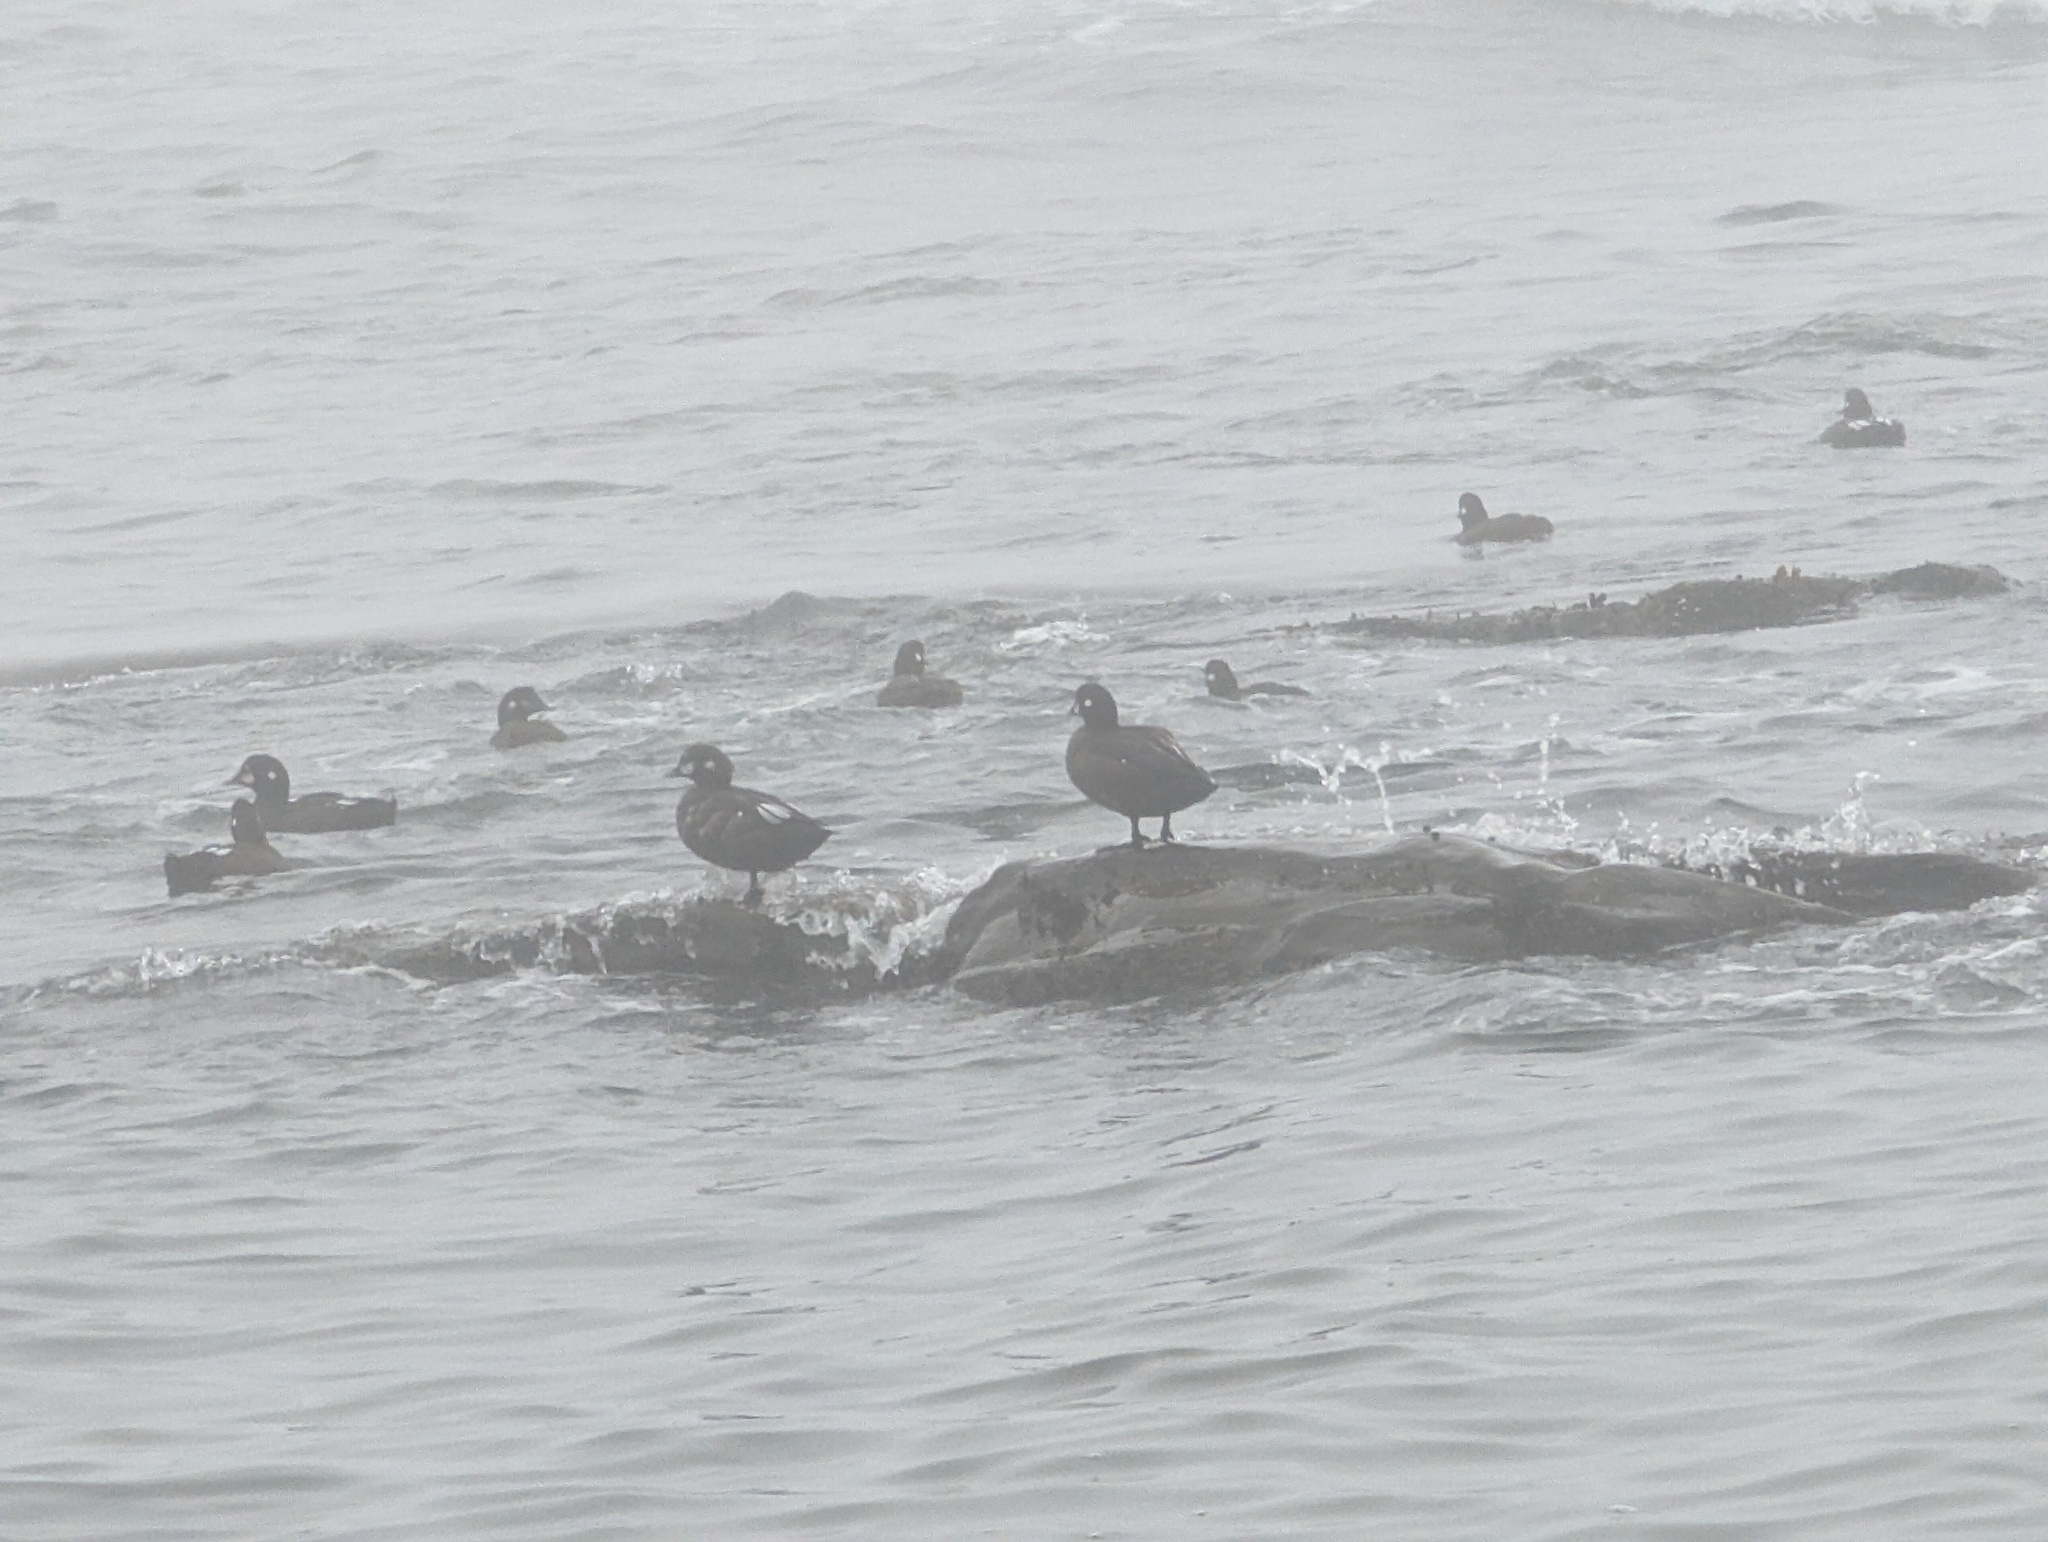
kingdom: Animalia
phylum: Chordata
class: Aves
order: Anseriformes
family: Anatidae
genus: Histrionicus
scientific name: Histrionicus histrionicus
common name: Harlequin duck
